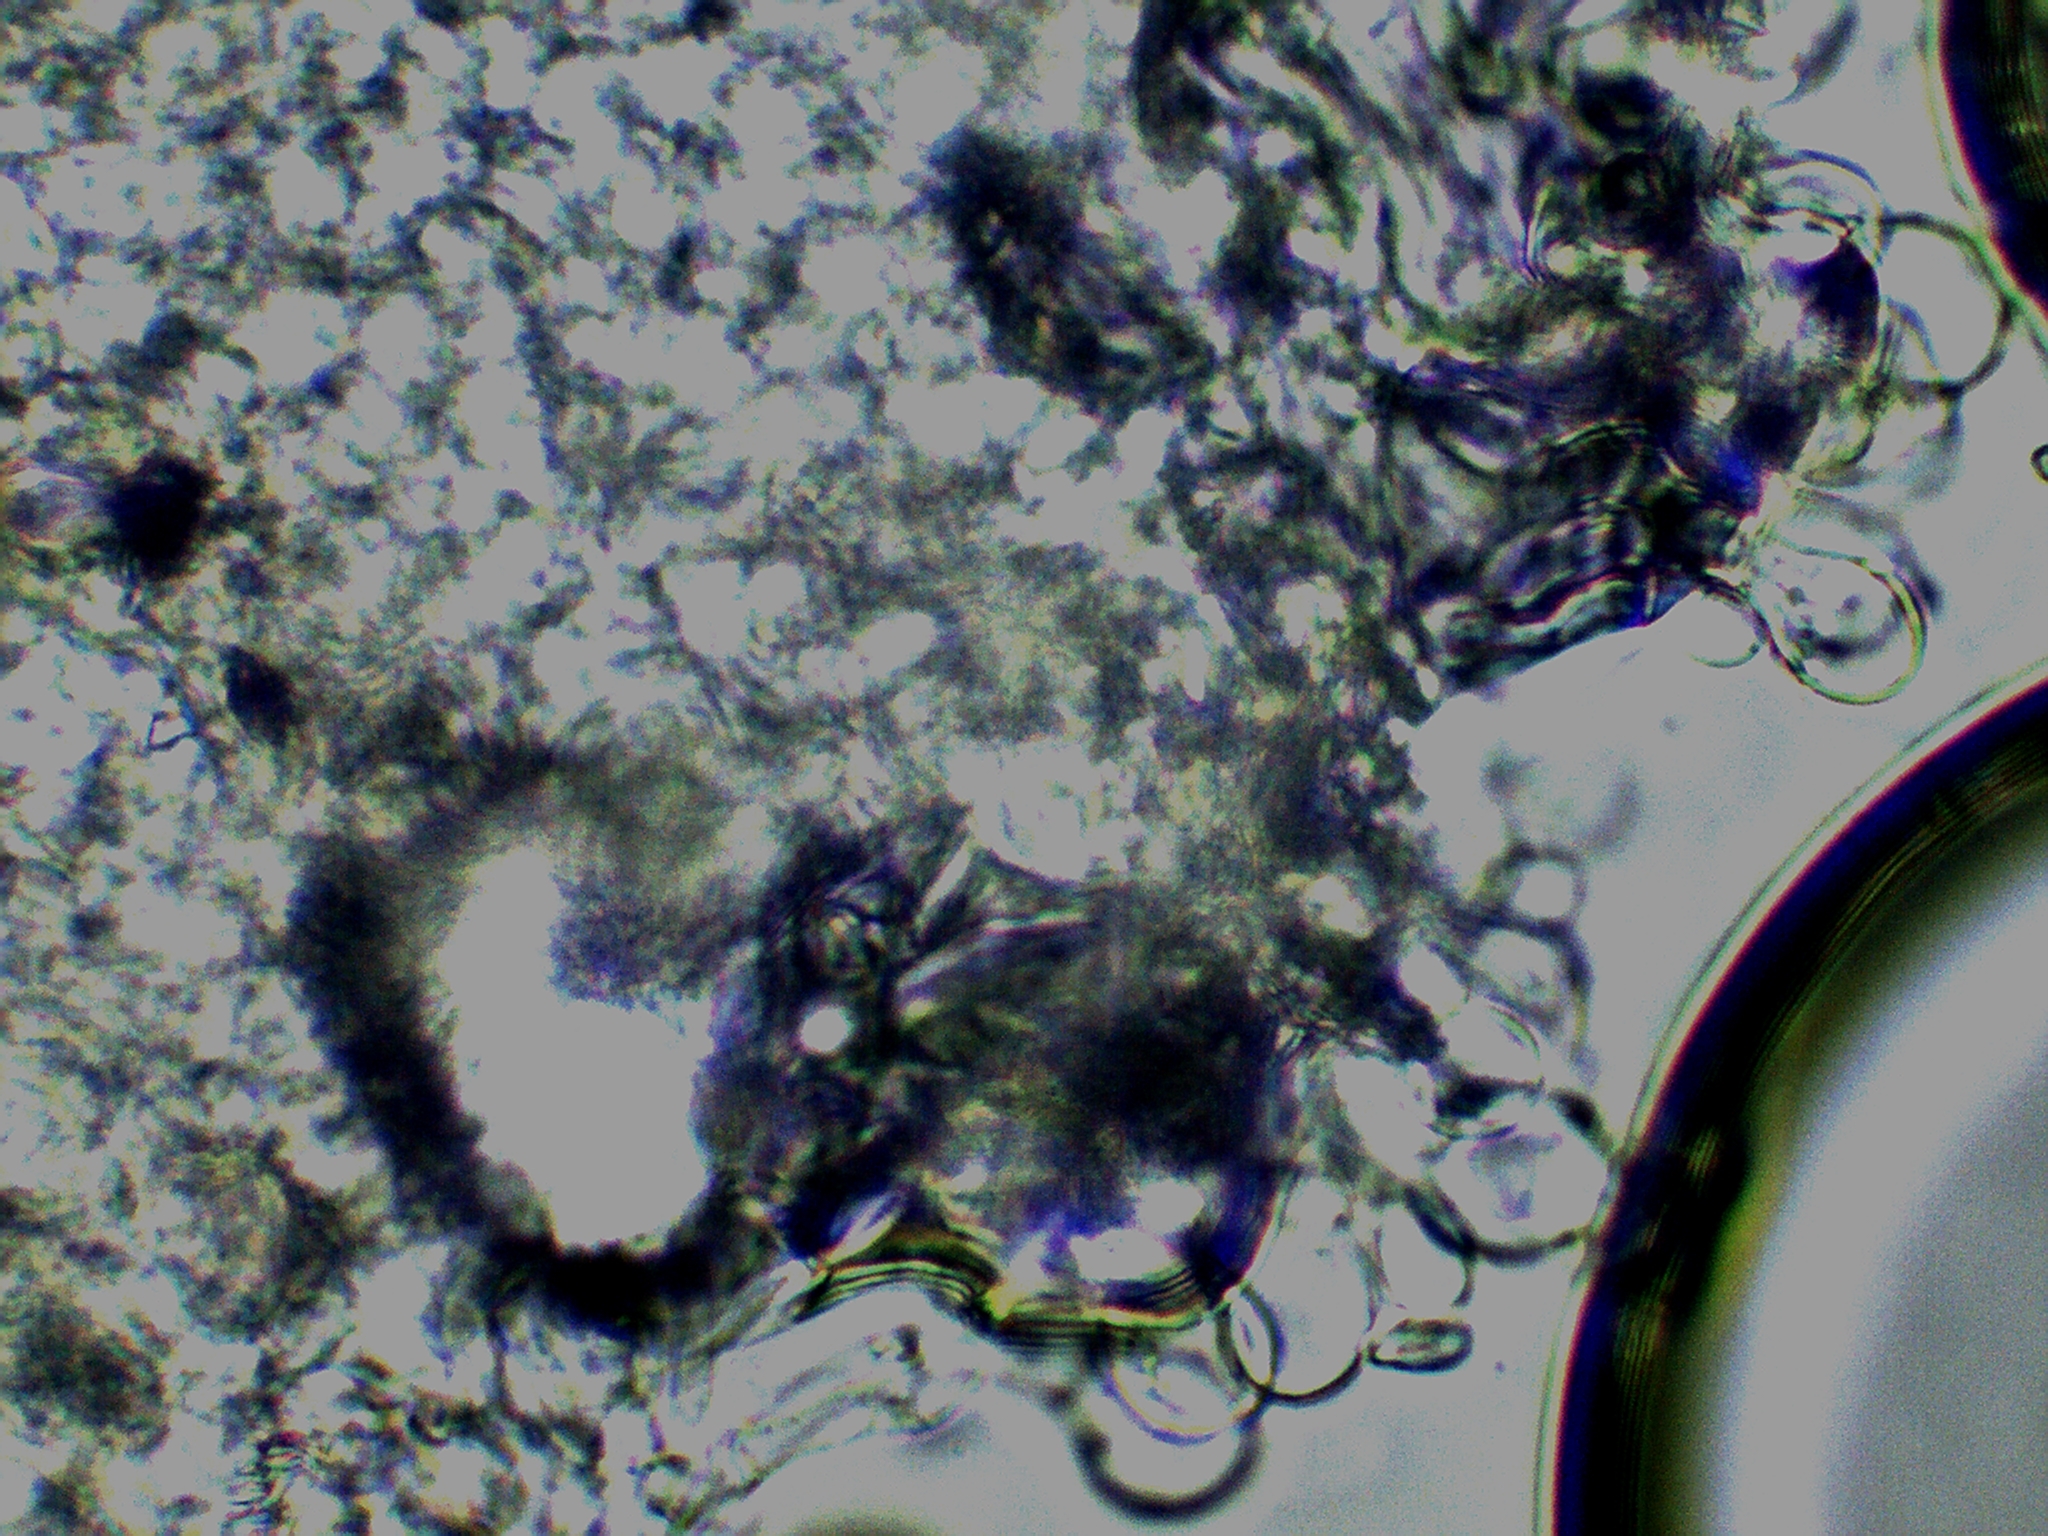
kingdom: Fungi
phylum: Basidiomycota
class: Agaricomycetes
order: Agaricales
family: Agaricaceae
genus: Echinoderma
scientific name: Echinoderma asperum
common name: Freckled dapperling
